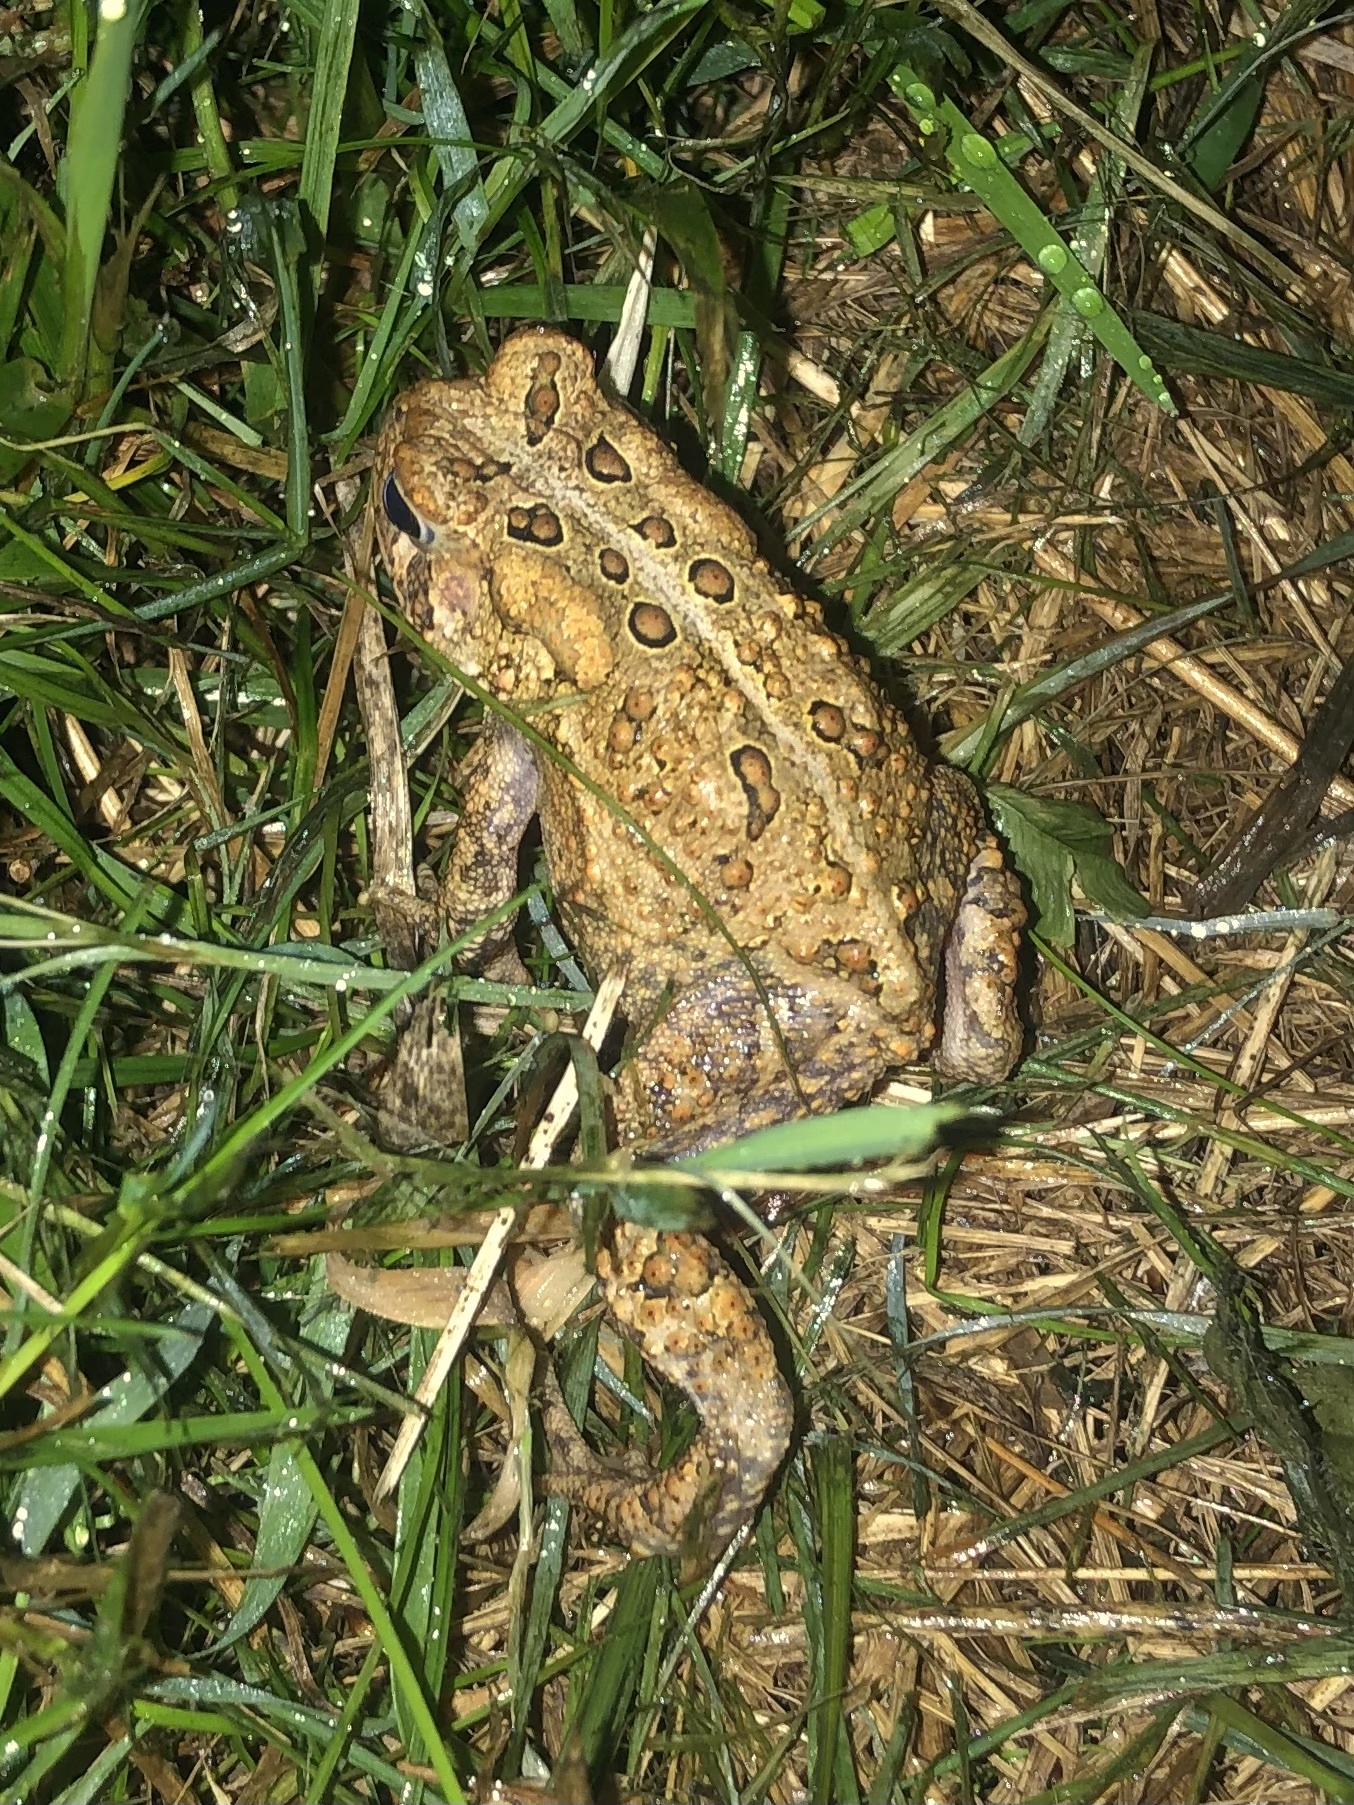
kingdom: Animalia
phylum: Chordata
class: Amphibia
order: Anura
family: Bufonidae
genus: Anaxyrus
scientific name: Anaxyrus americanus
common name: American toad
